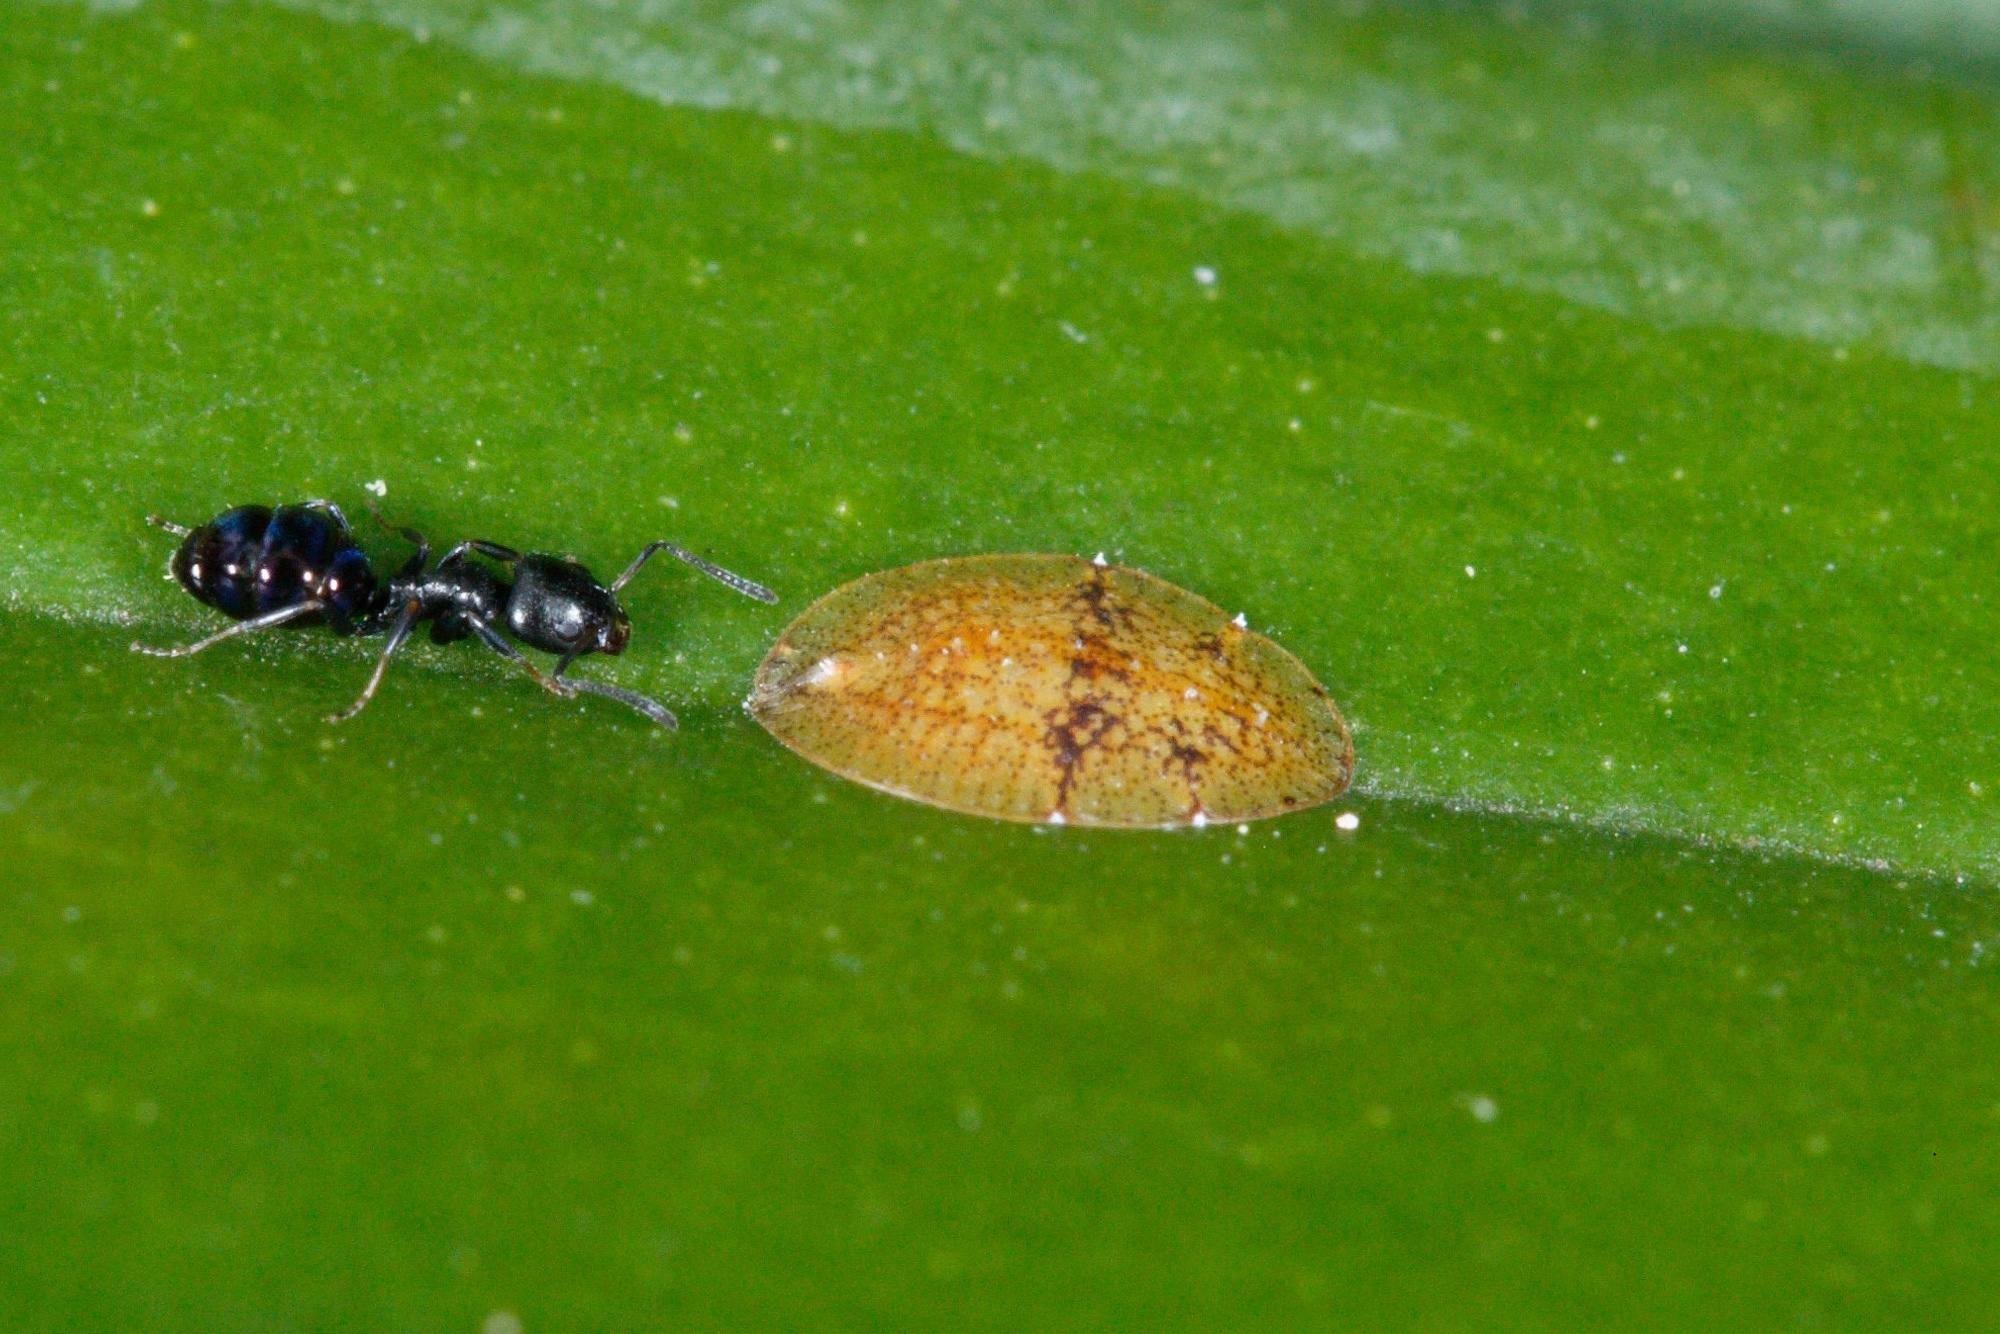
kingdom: Animalia
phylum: Arthropoda
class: Insecta
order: Hemiptera
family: Coccidae
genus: Coccus
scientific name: Coccus hesperidum
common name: Soft brown scale
